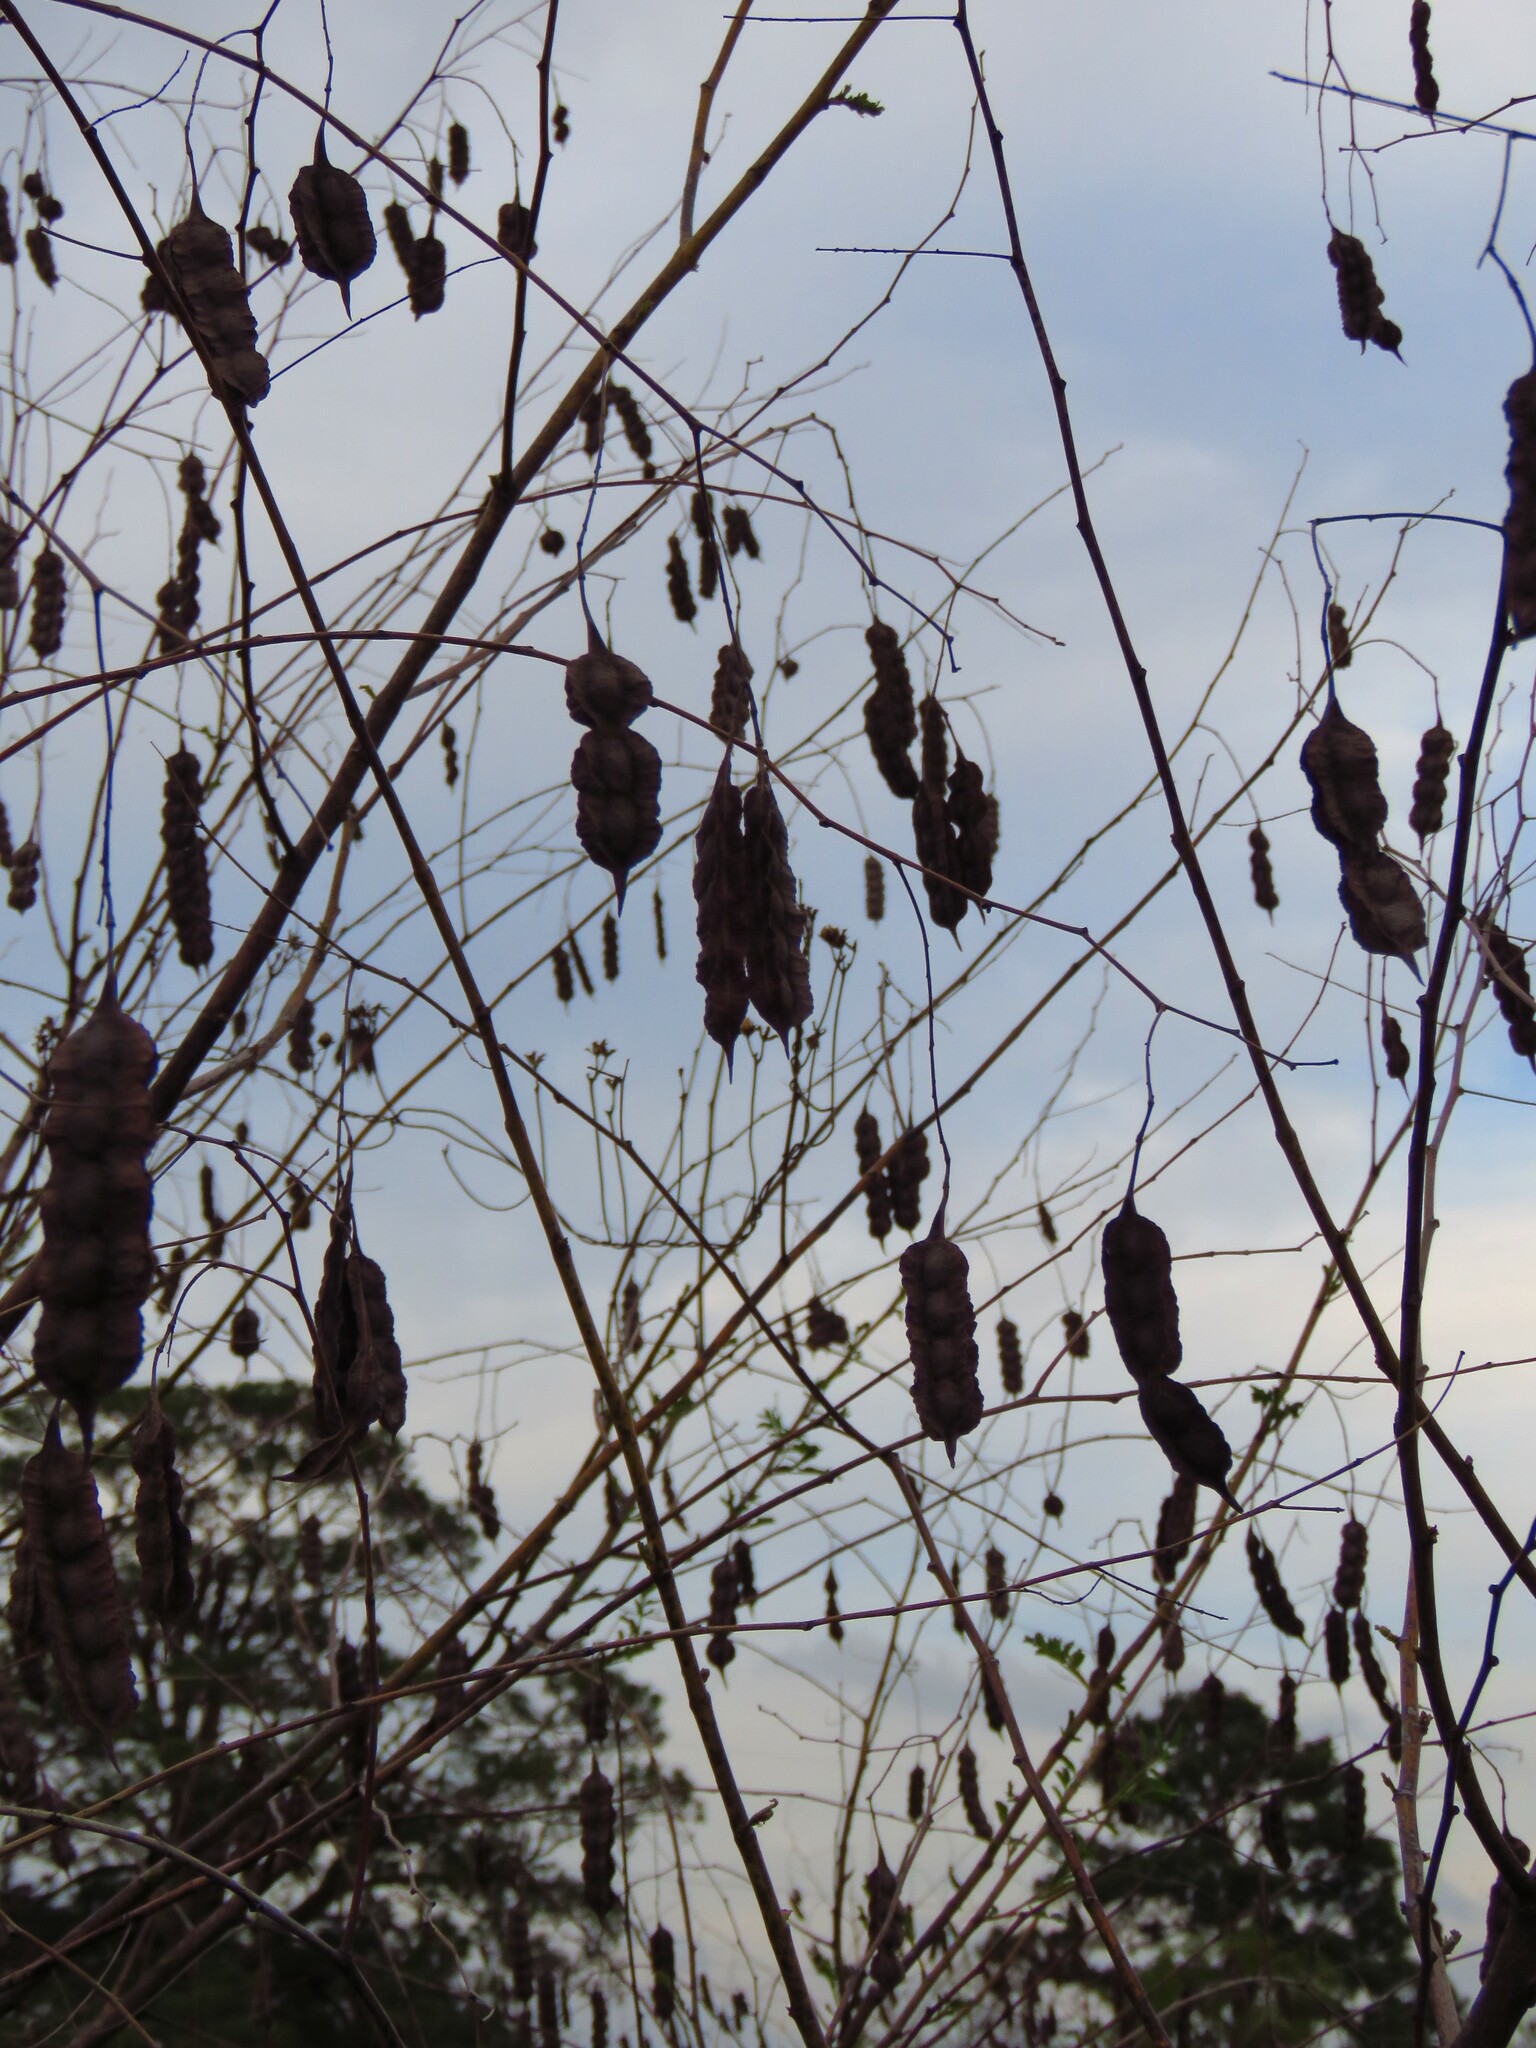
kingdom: Plantae
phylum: Tracheophyta
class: Magnoliopsida
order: Fabales
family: Fabaceae
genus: Sesbania
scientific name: Sesbania drummondii
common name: Poison-bean
